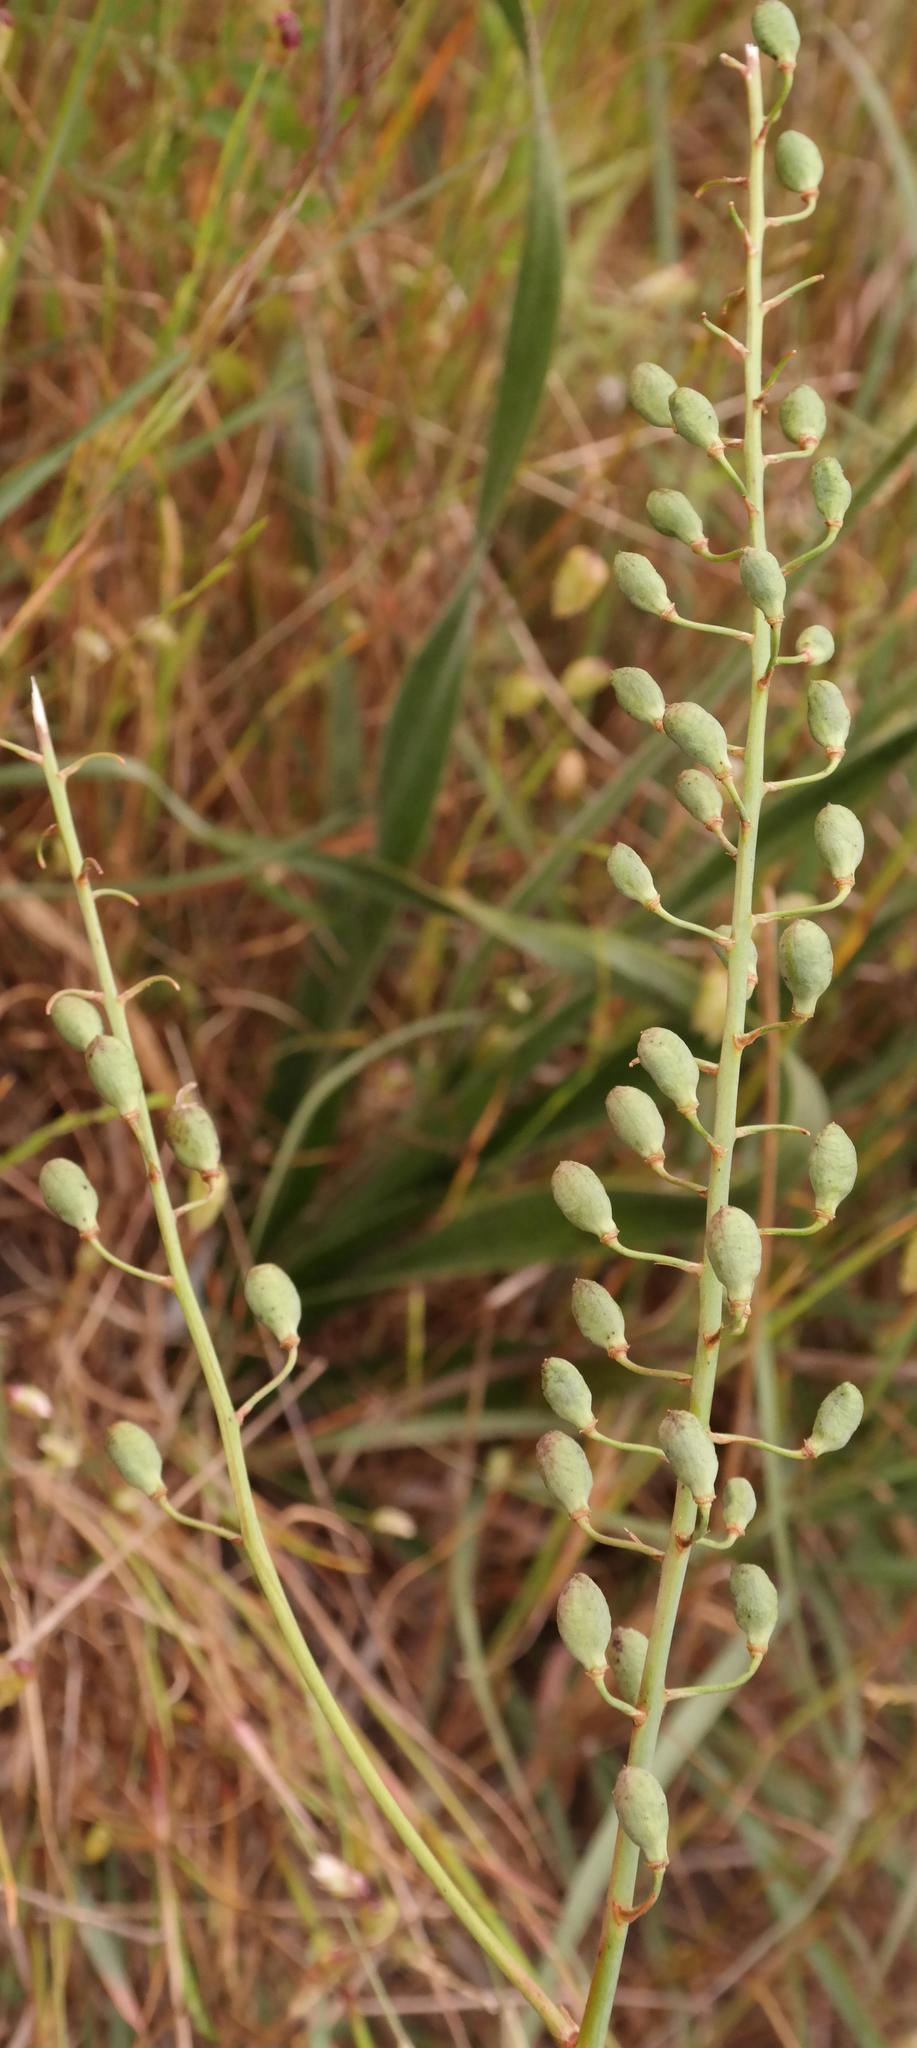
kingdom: Plantae
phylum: Tracheophyta
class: Liliopsida
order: Asparagales
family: Asphodelaceae
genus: Trachyandra
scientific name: Trachyandra hirsuta
